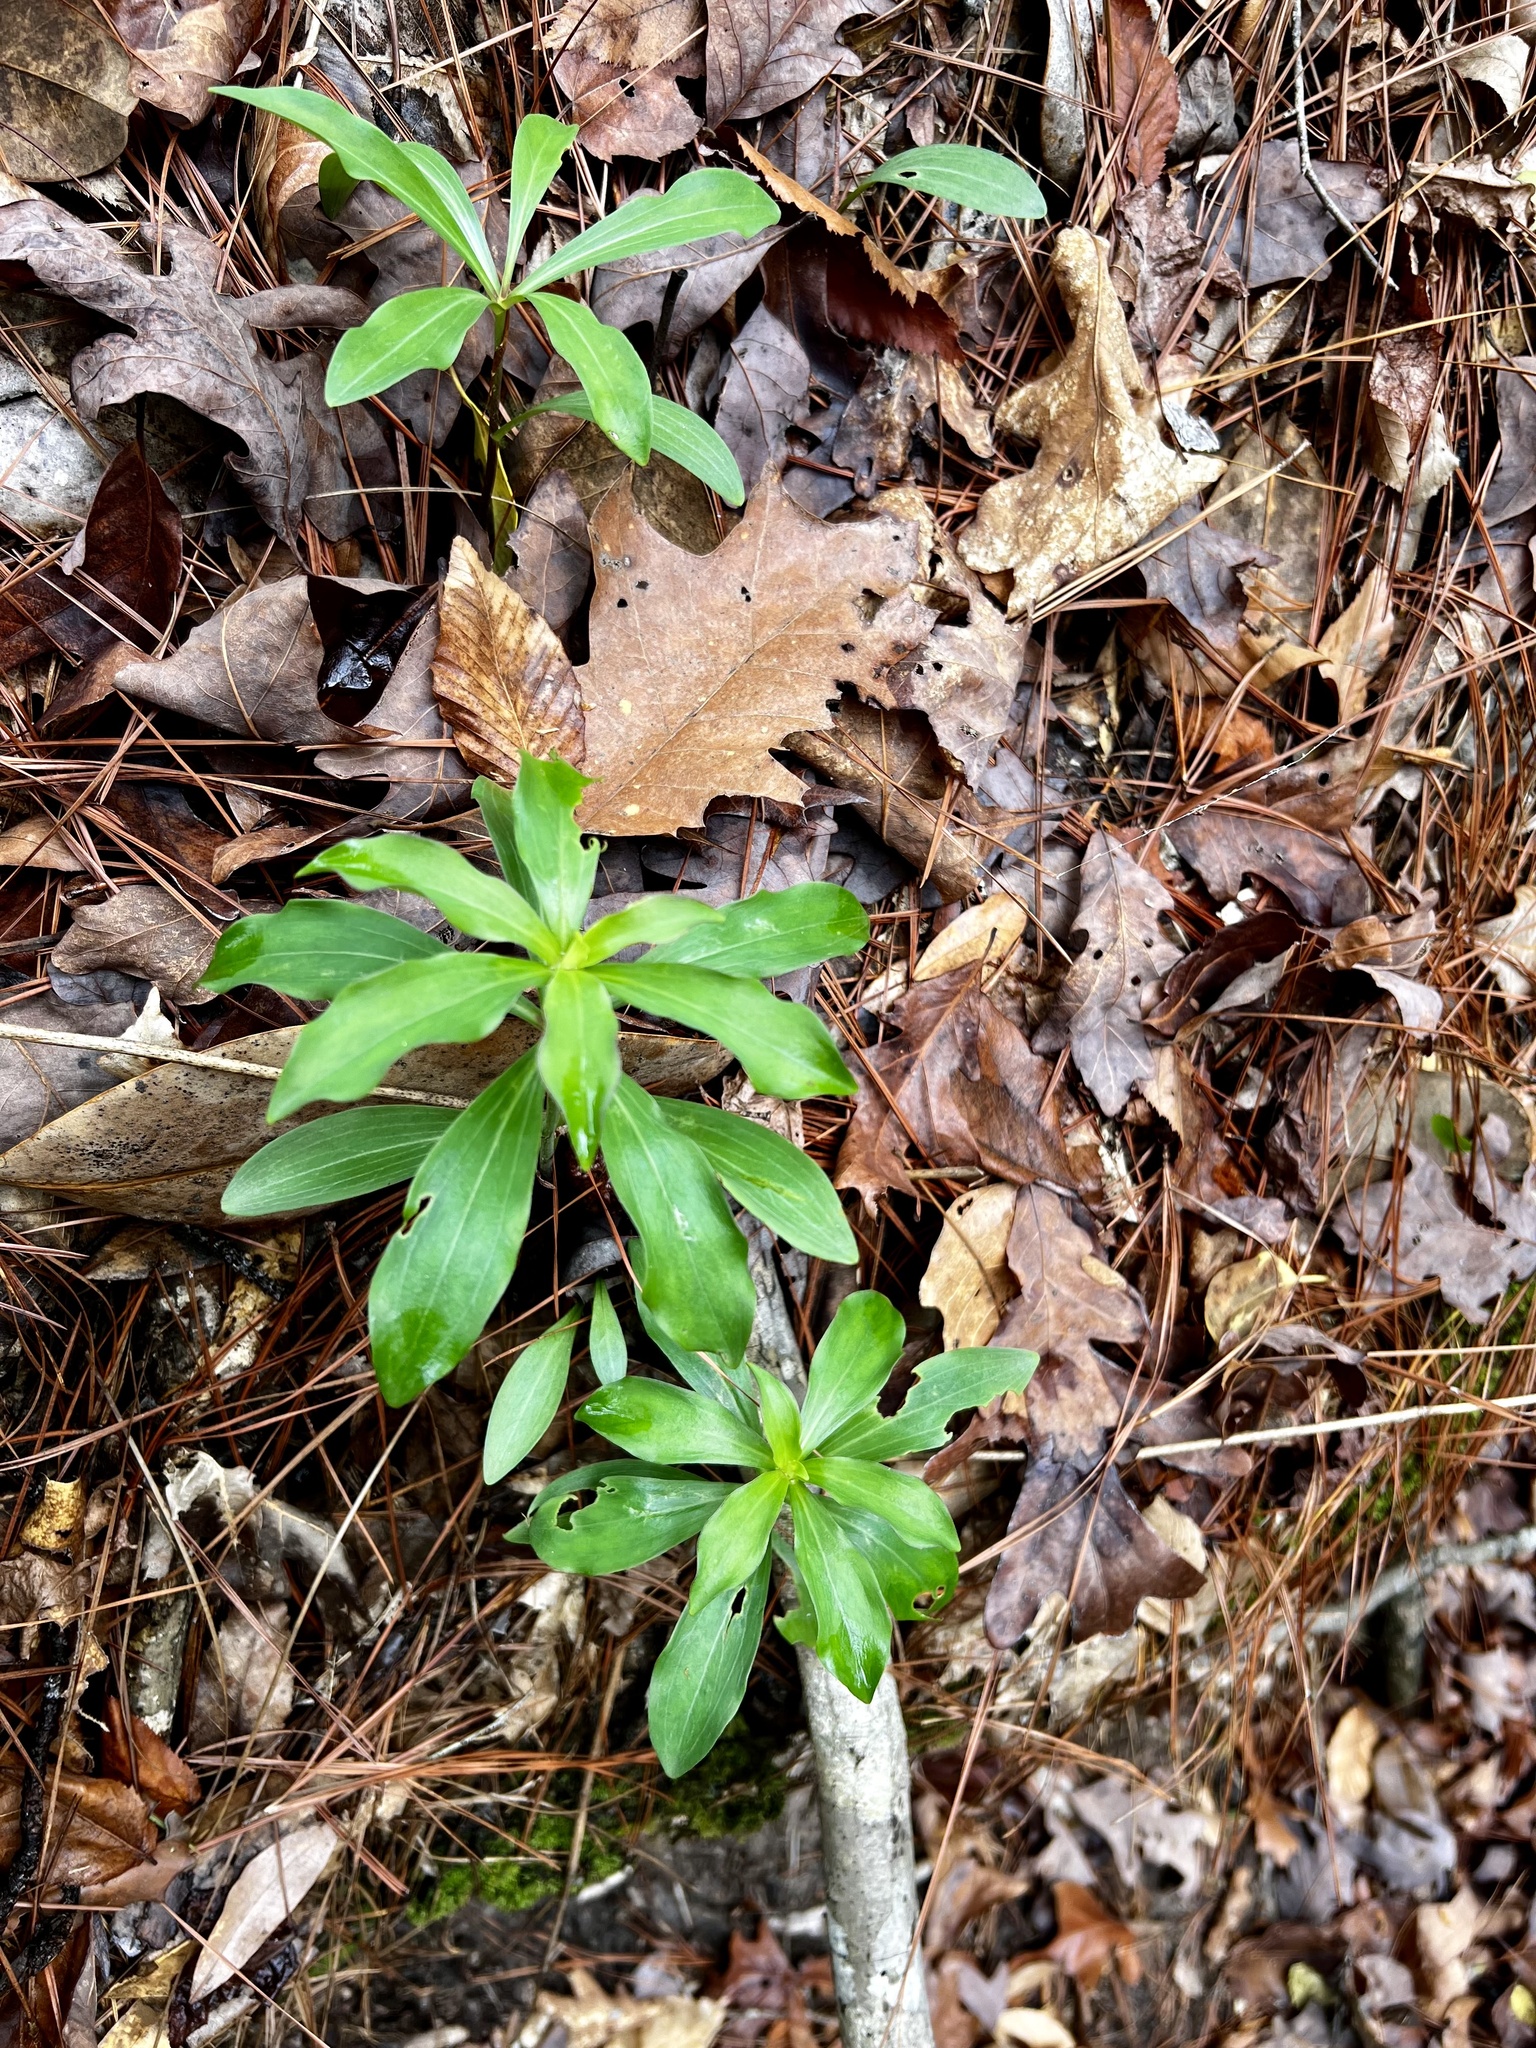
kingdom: Plantae
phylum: Tracheophyta
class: Liliopsida
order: Liliales
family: Liliaceae
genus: Lilium
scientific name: Lilium michauxii
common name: Carolina lily
